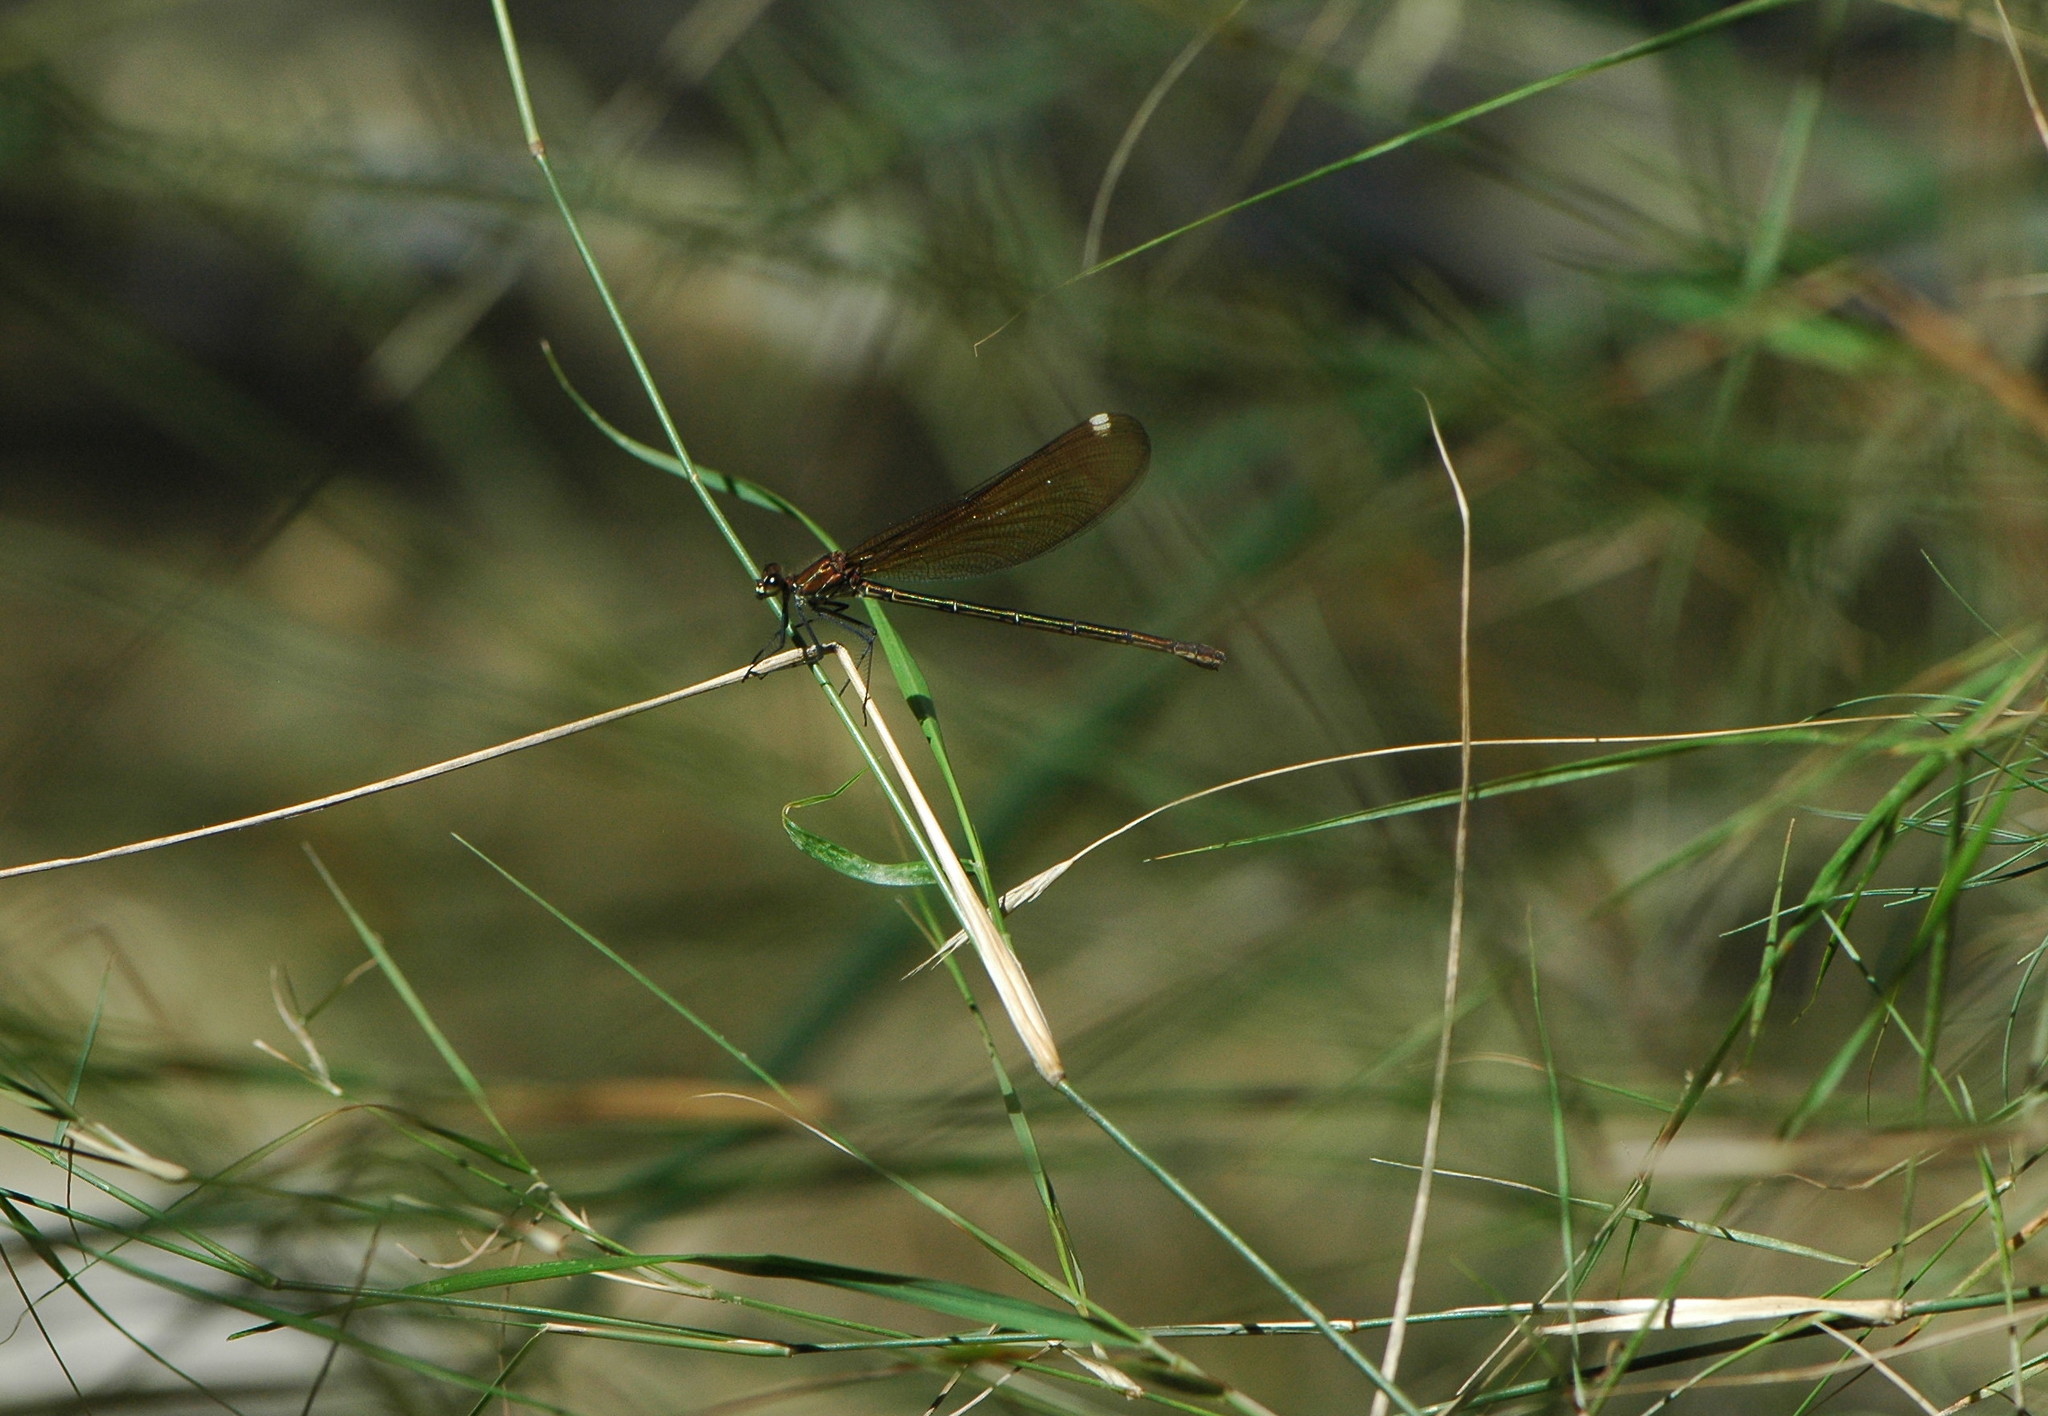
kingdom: Animalia
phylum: Arthropoda
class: Insecta
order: Odonata
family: Calopterygidae
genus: Calopteryx
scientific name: Calopteryx haemorrhoidalis
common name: Copper demoiselle
